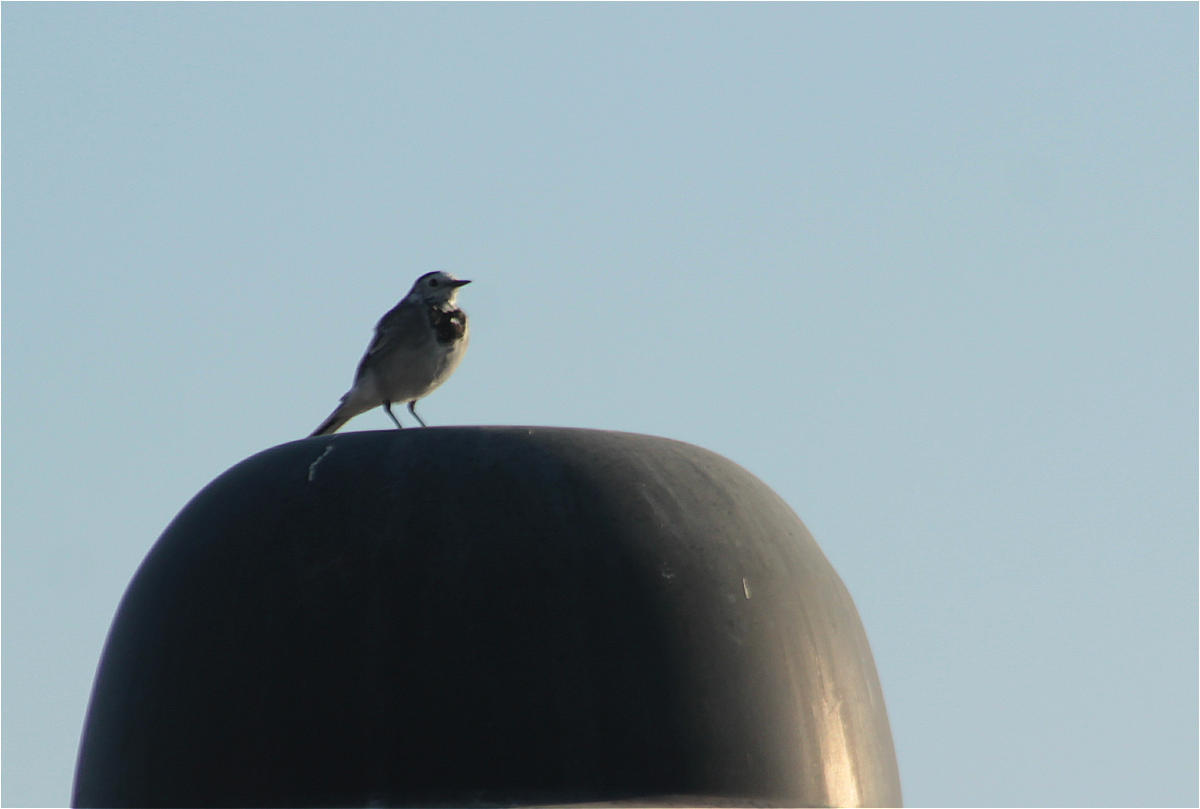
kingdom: Animalia
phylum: Chordata
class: Aves
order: Passeriformes
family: Motacillidae
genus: Motacilla
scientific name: Motacilla alba
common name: White wagtail
